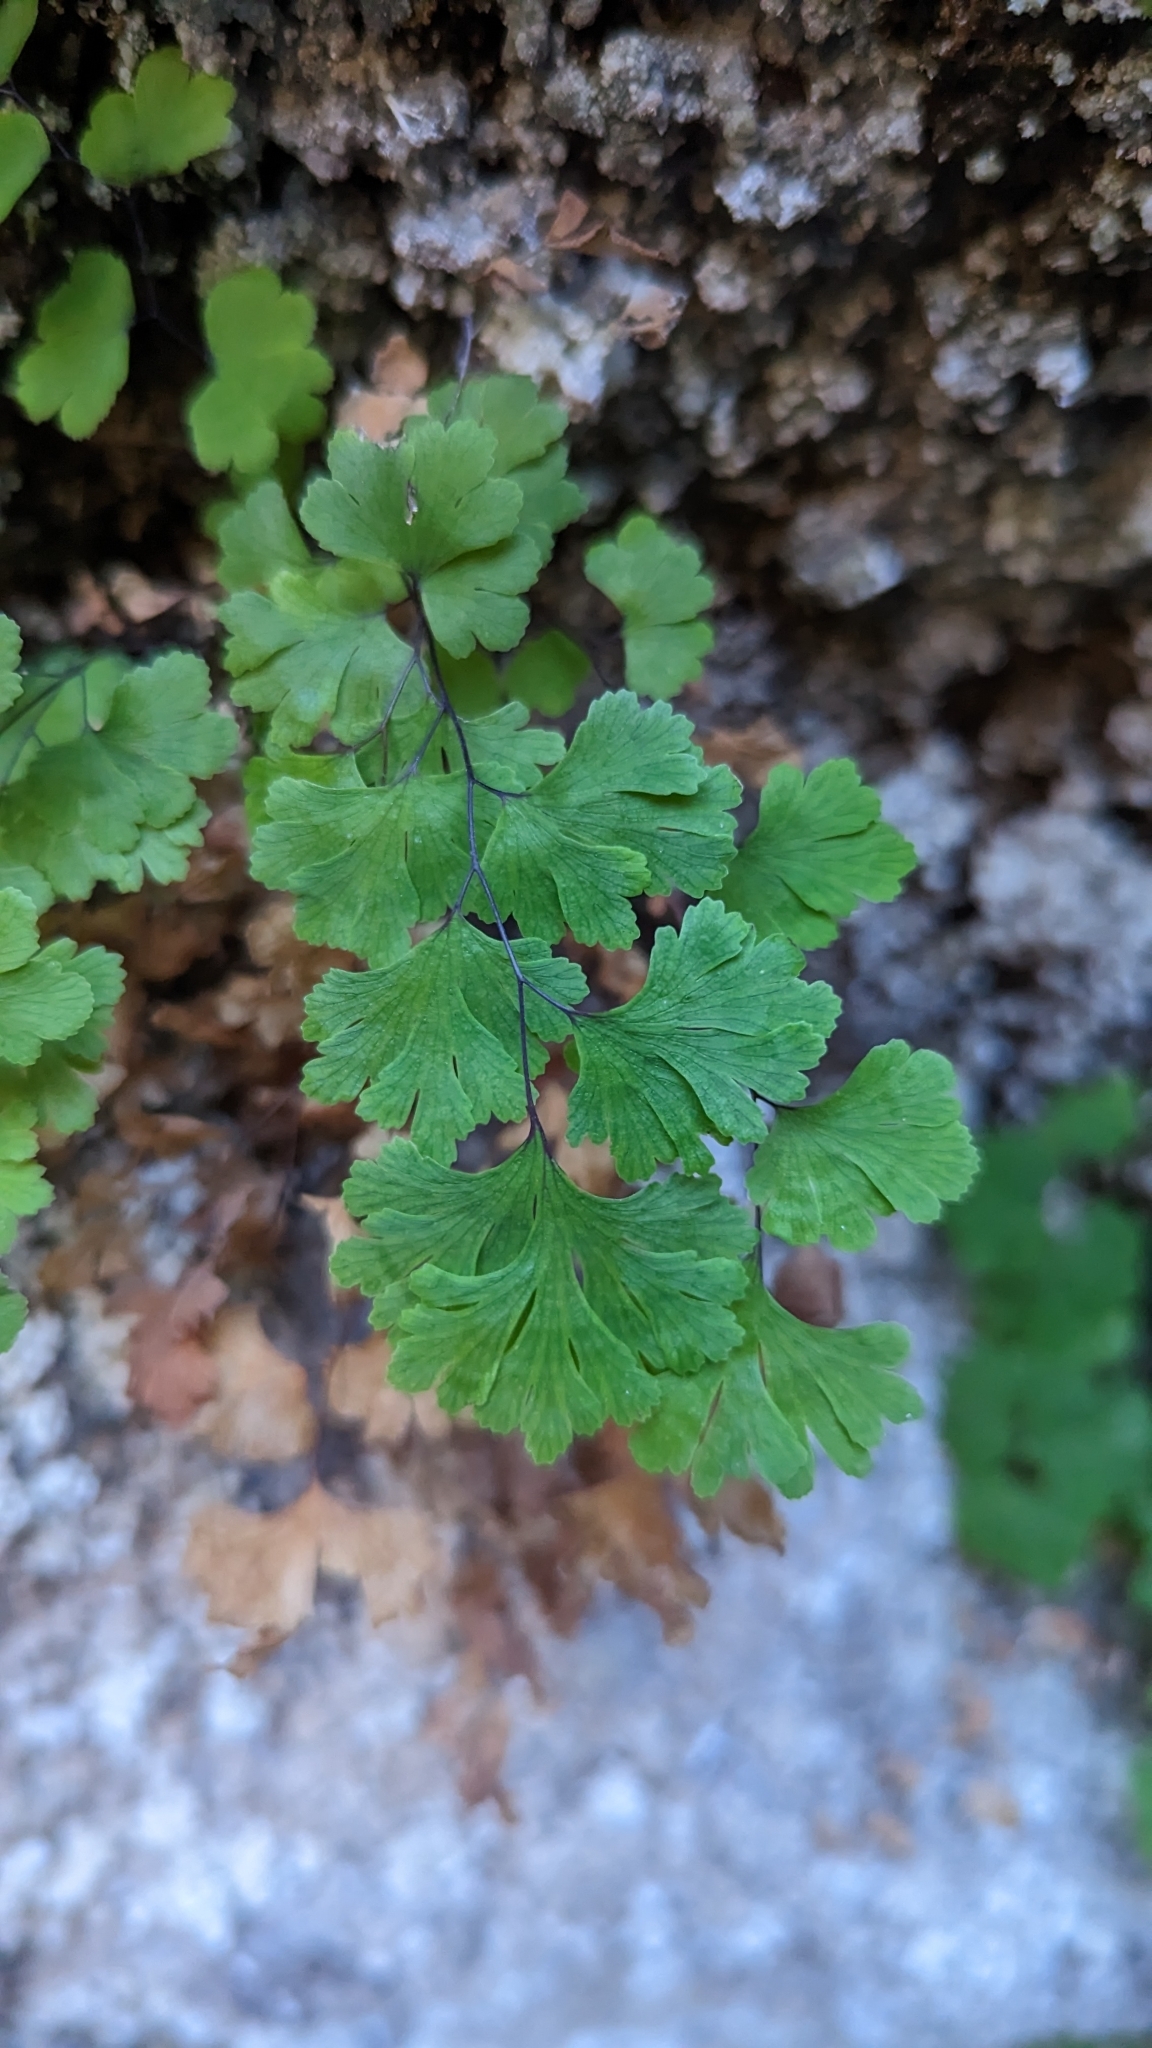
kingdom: Plantae
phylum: Tracheophyta
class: Polypodiopsida
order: Polypodiales
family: Pteridaceae
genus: Adiantum
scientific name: Adiantum capillus-veneris
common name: Maidenhair fern
